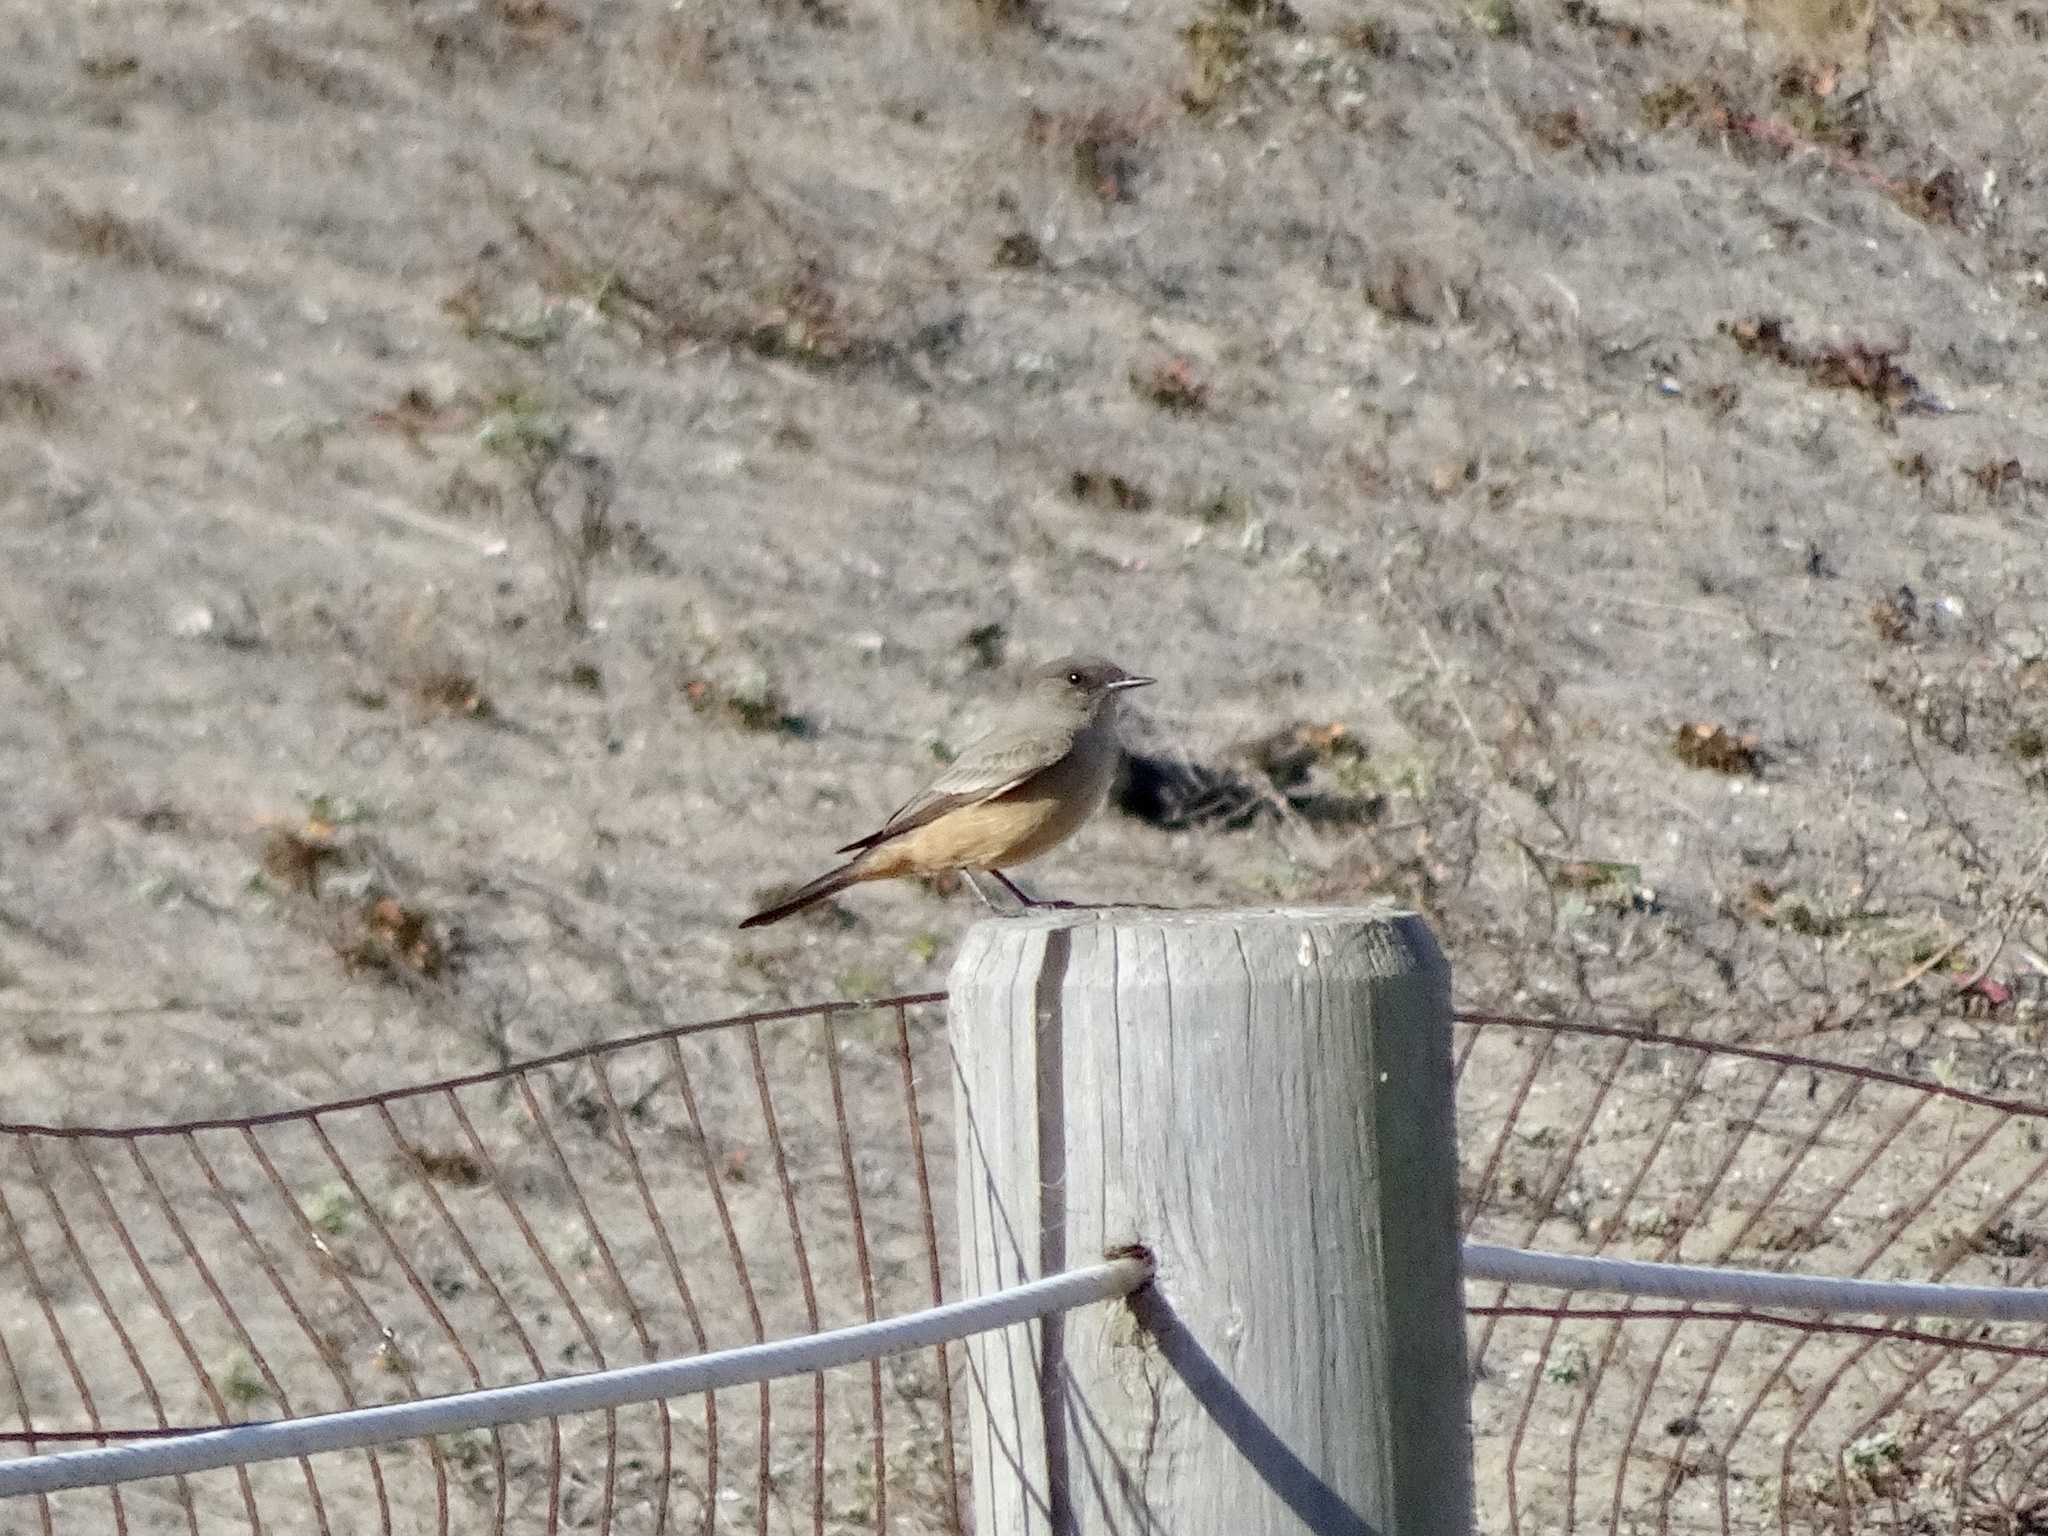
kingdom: Animalia
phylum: Chordata
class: Aves
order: Passeriformes
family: Tyrannidae
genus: Sayornis
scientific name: Sayornis saya
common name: Say's phoebe
